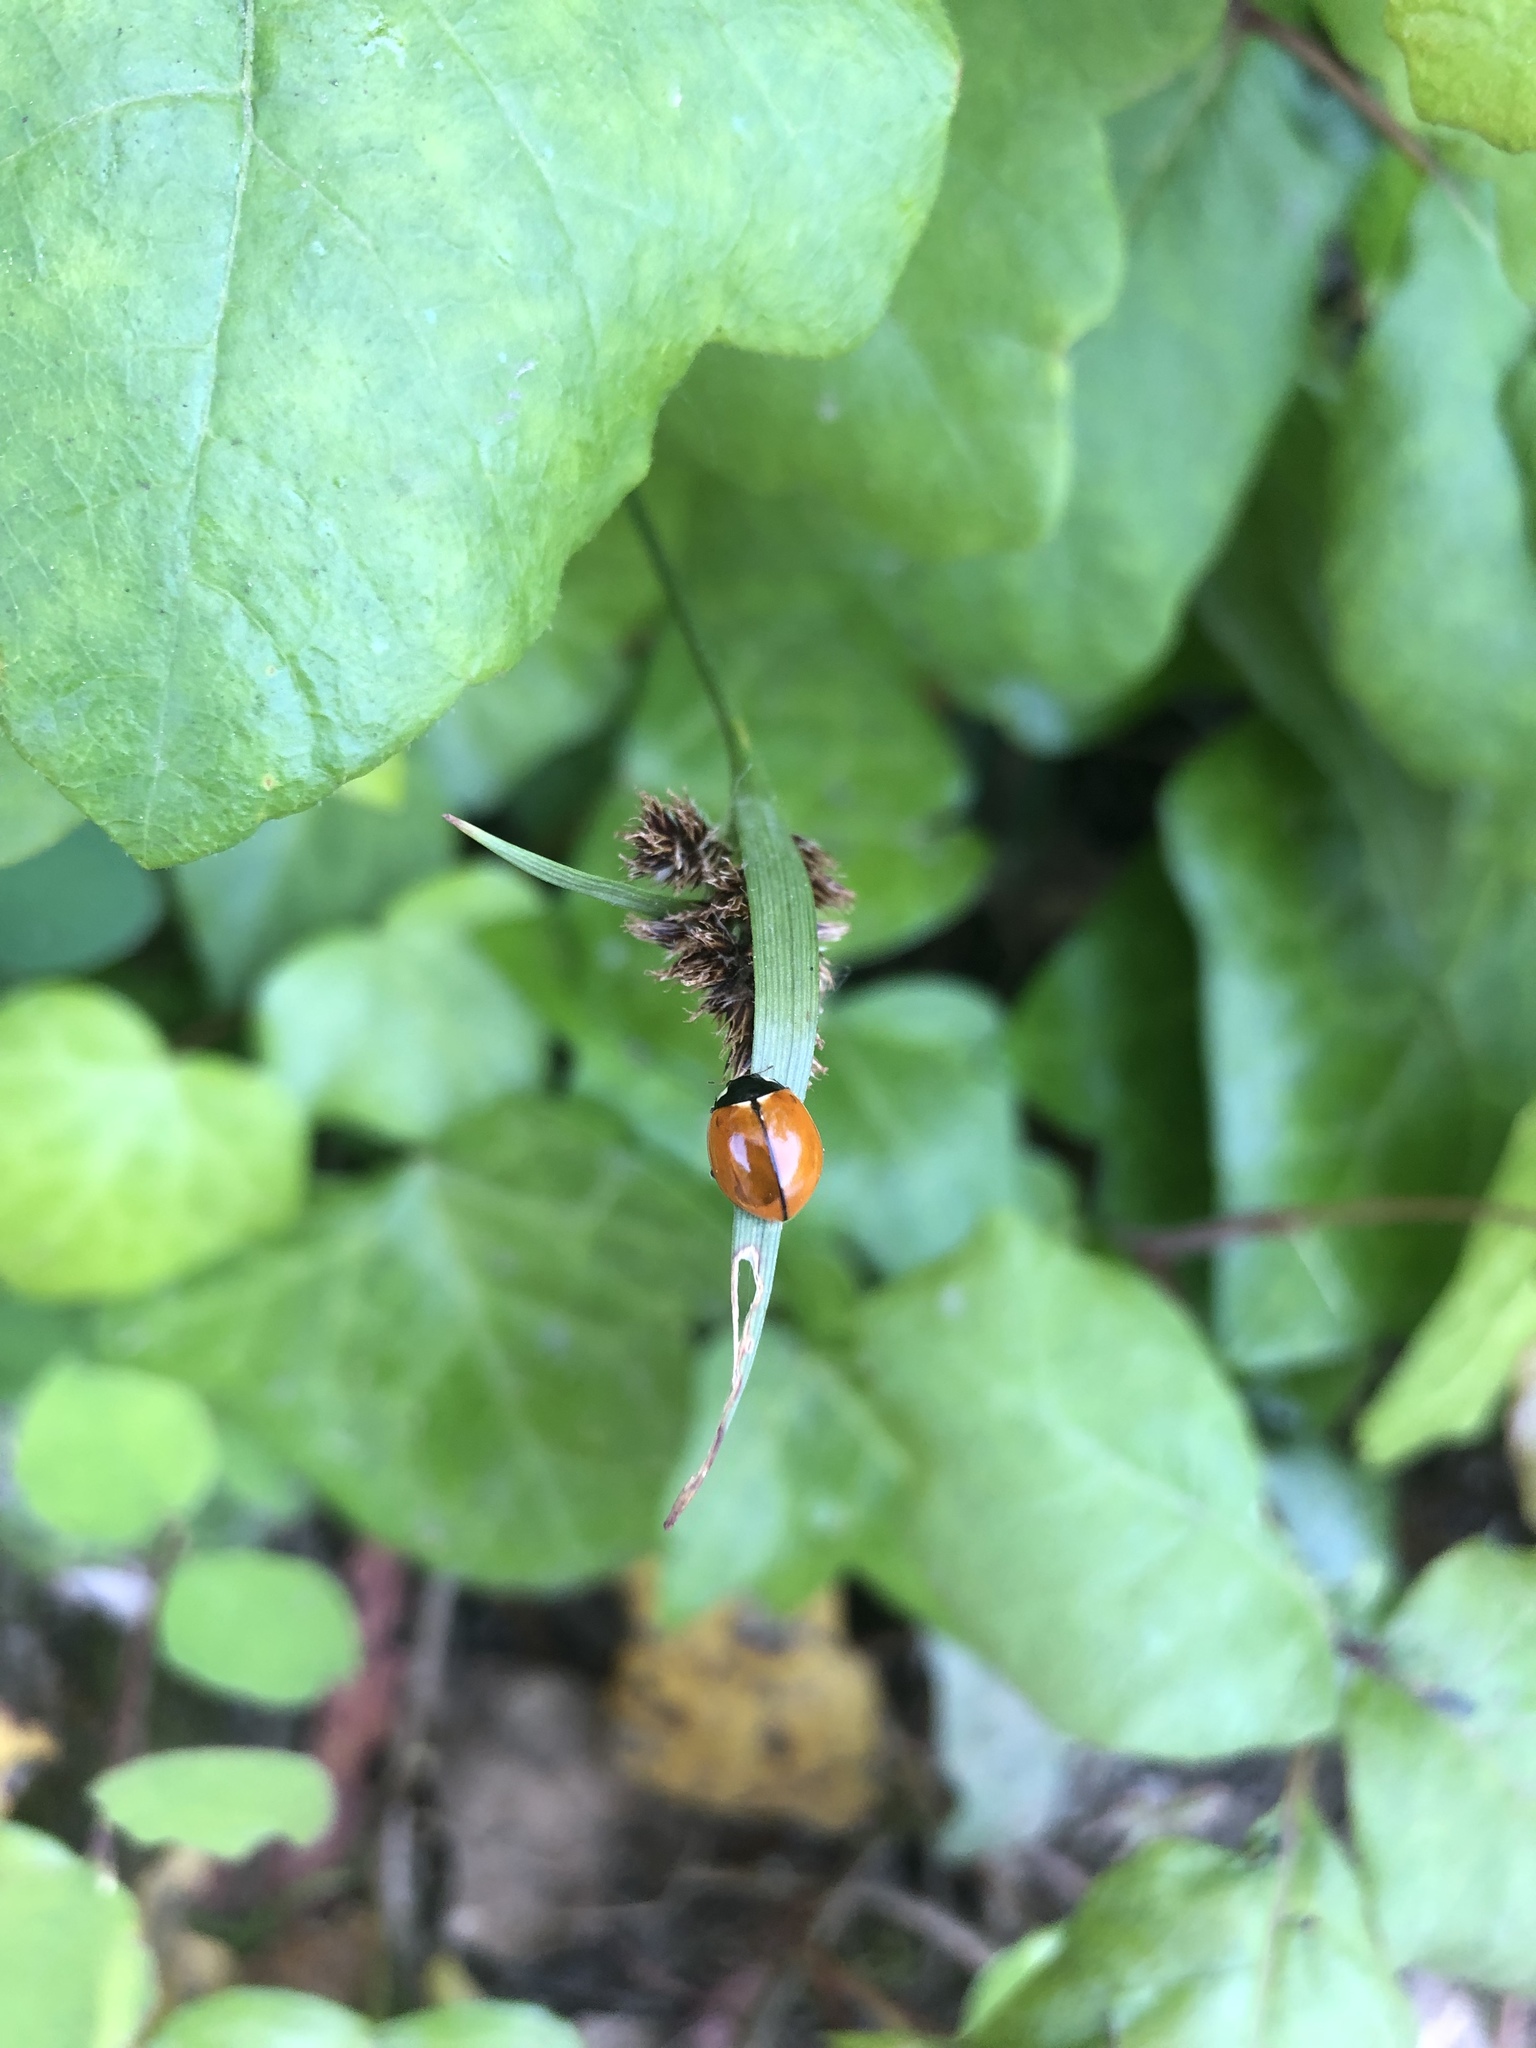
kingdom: Animalia
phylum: Arthropoda
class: Insecta
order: Coleoptera
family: Coccinellidae
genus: Coccinella
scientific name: Coccinella californica
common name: Lady beetle
